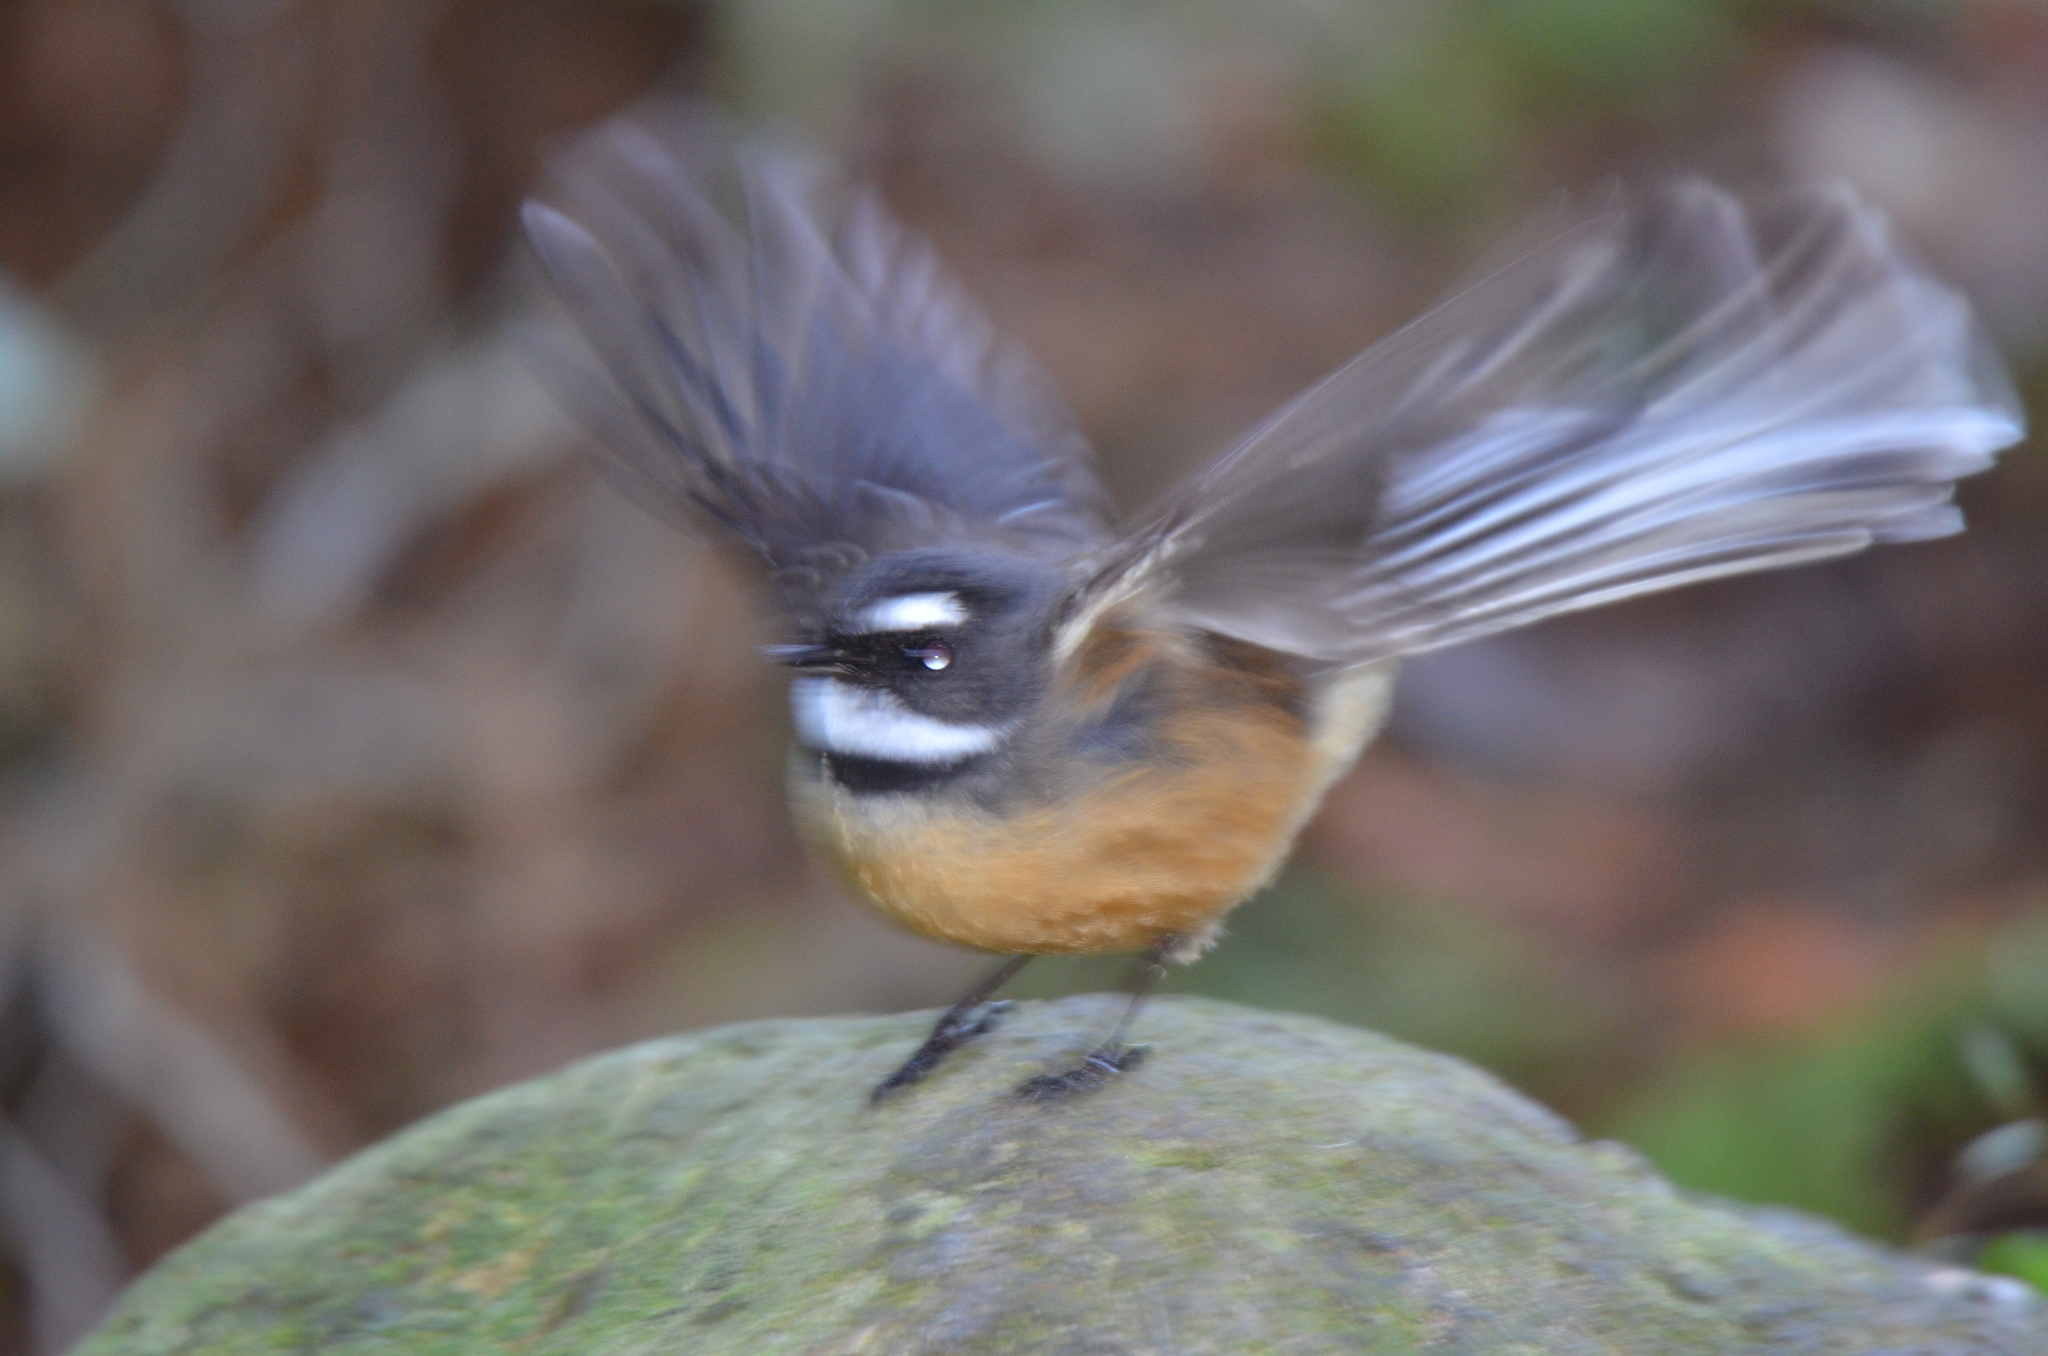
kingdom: Animalia
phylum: Chordata
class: Aves
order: Passeriformes
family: Rhipiduridae
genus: Rhipidura
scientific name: Rhipidura fuliginosa
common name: New zealand fantail
